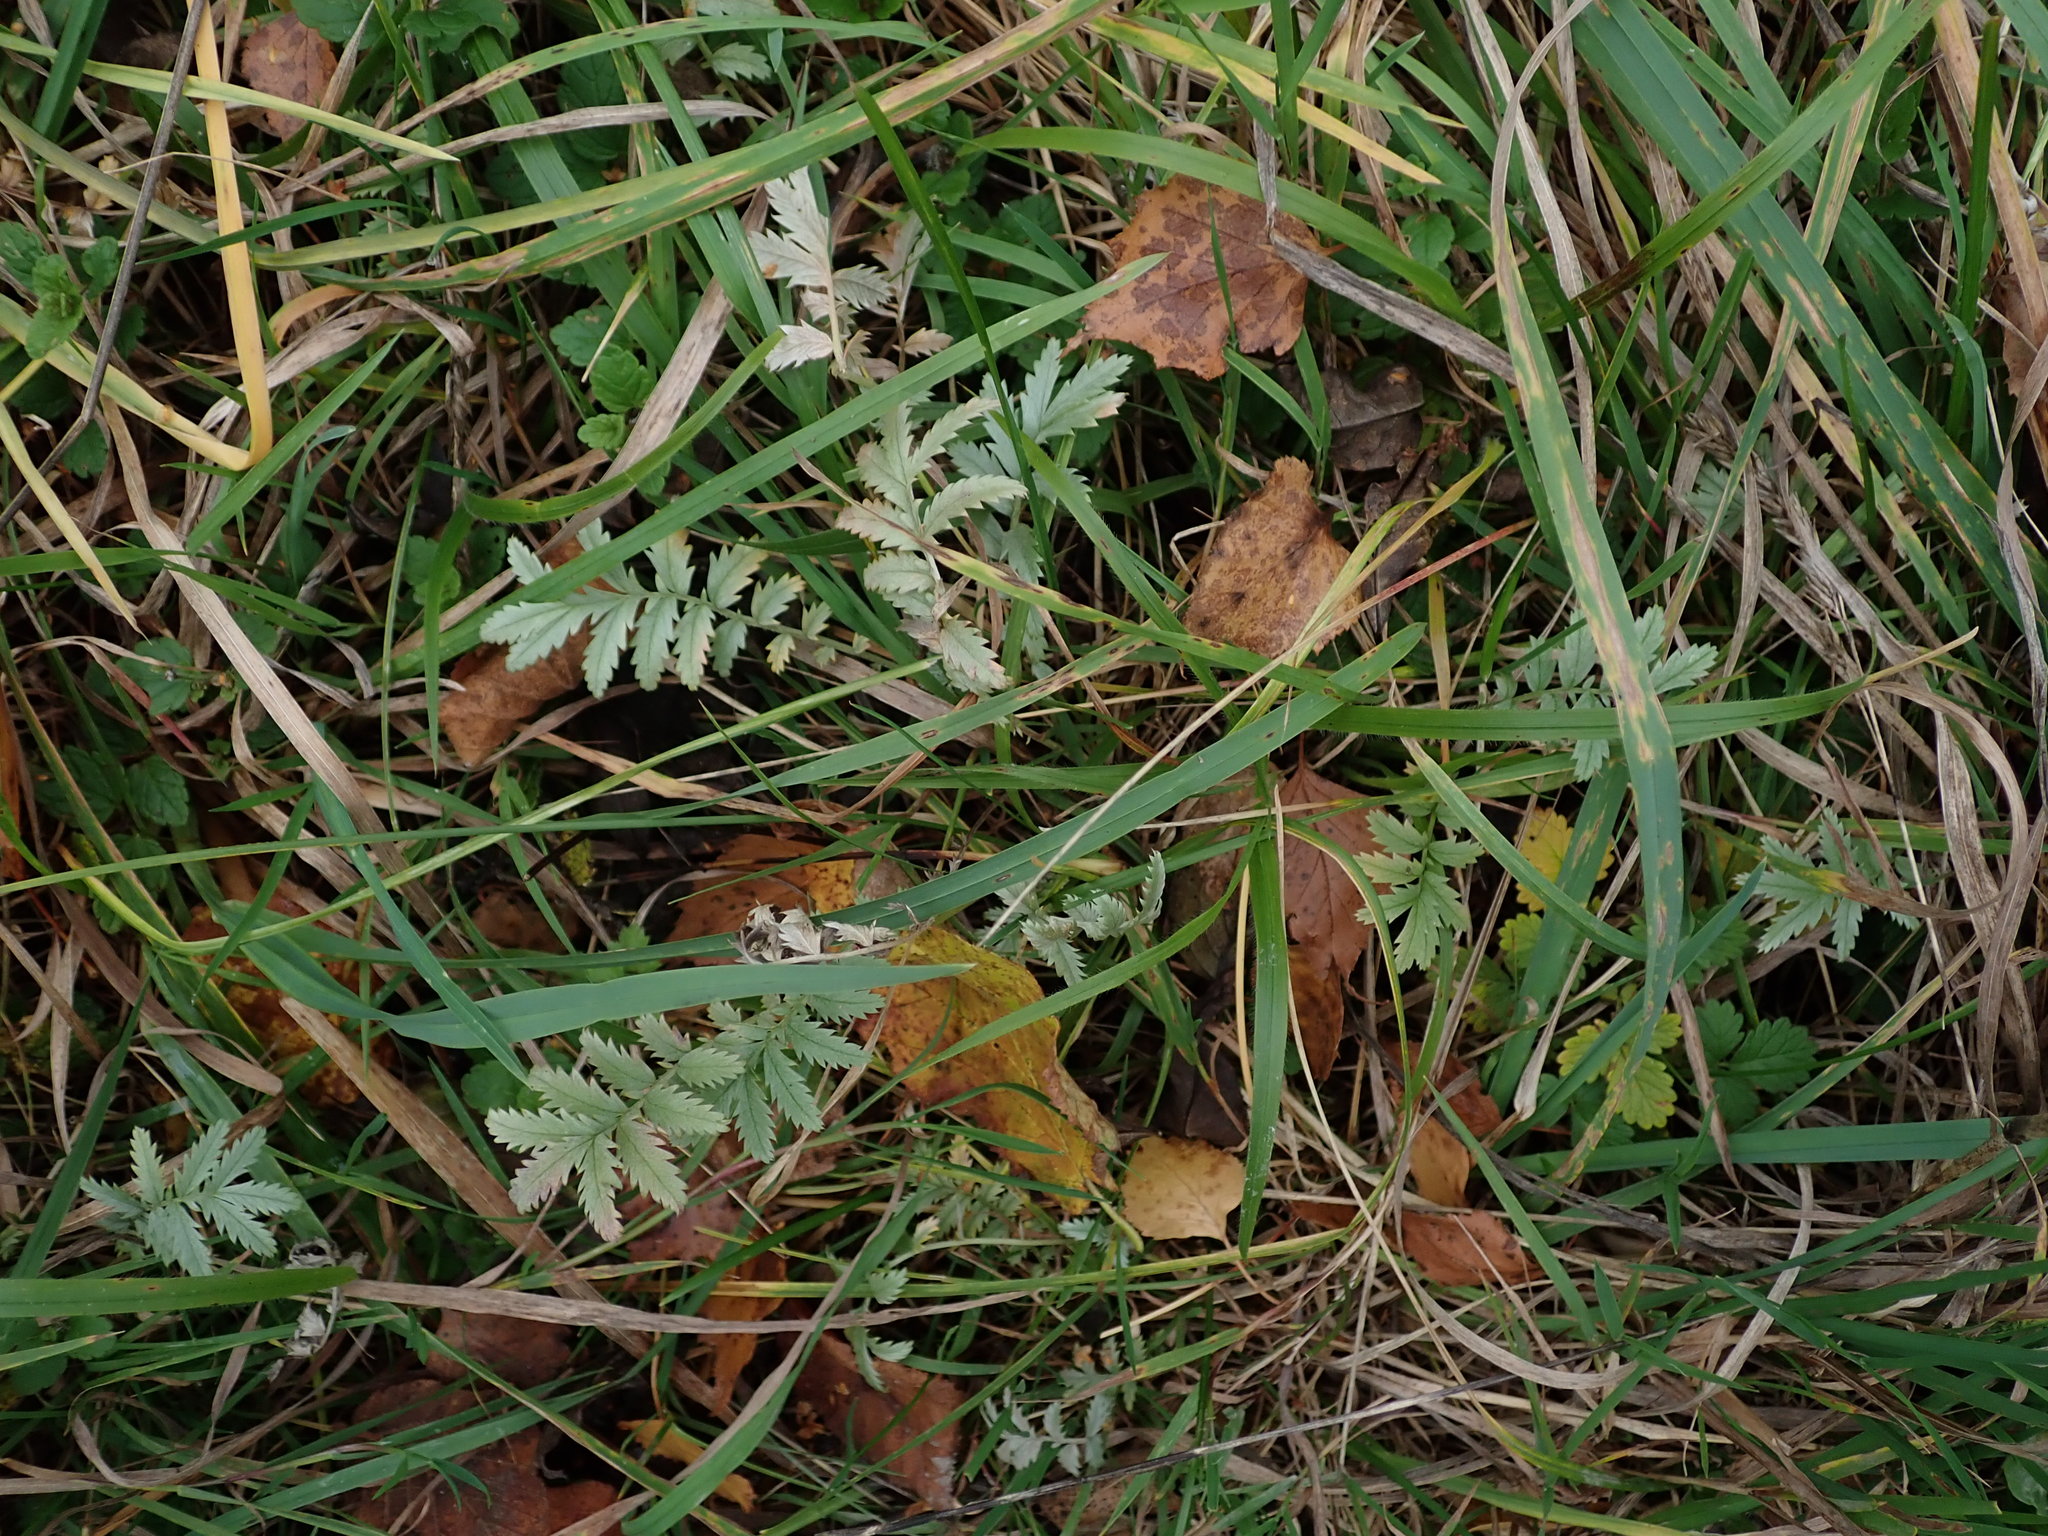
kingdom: Plantae
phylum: Tracheophyta
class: Magnoliopsida
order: Rosales
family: Rosaceae
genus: Argentina
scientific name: Argentina anserina
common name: Common silverweed
